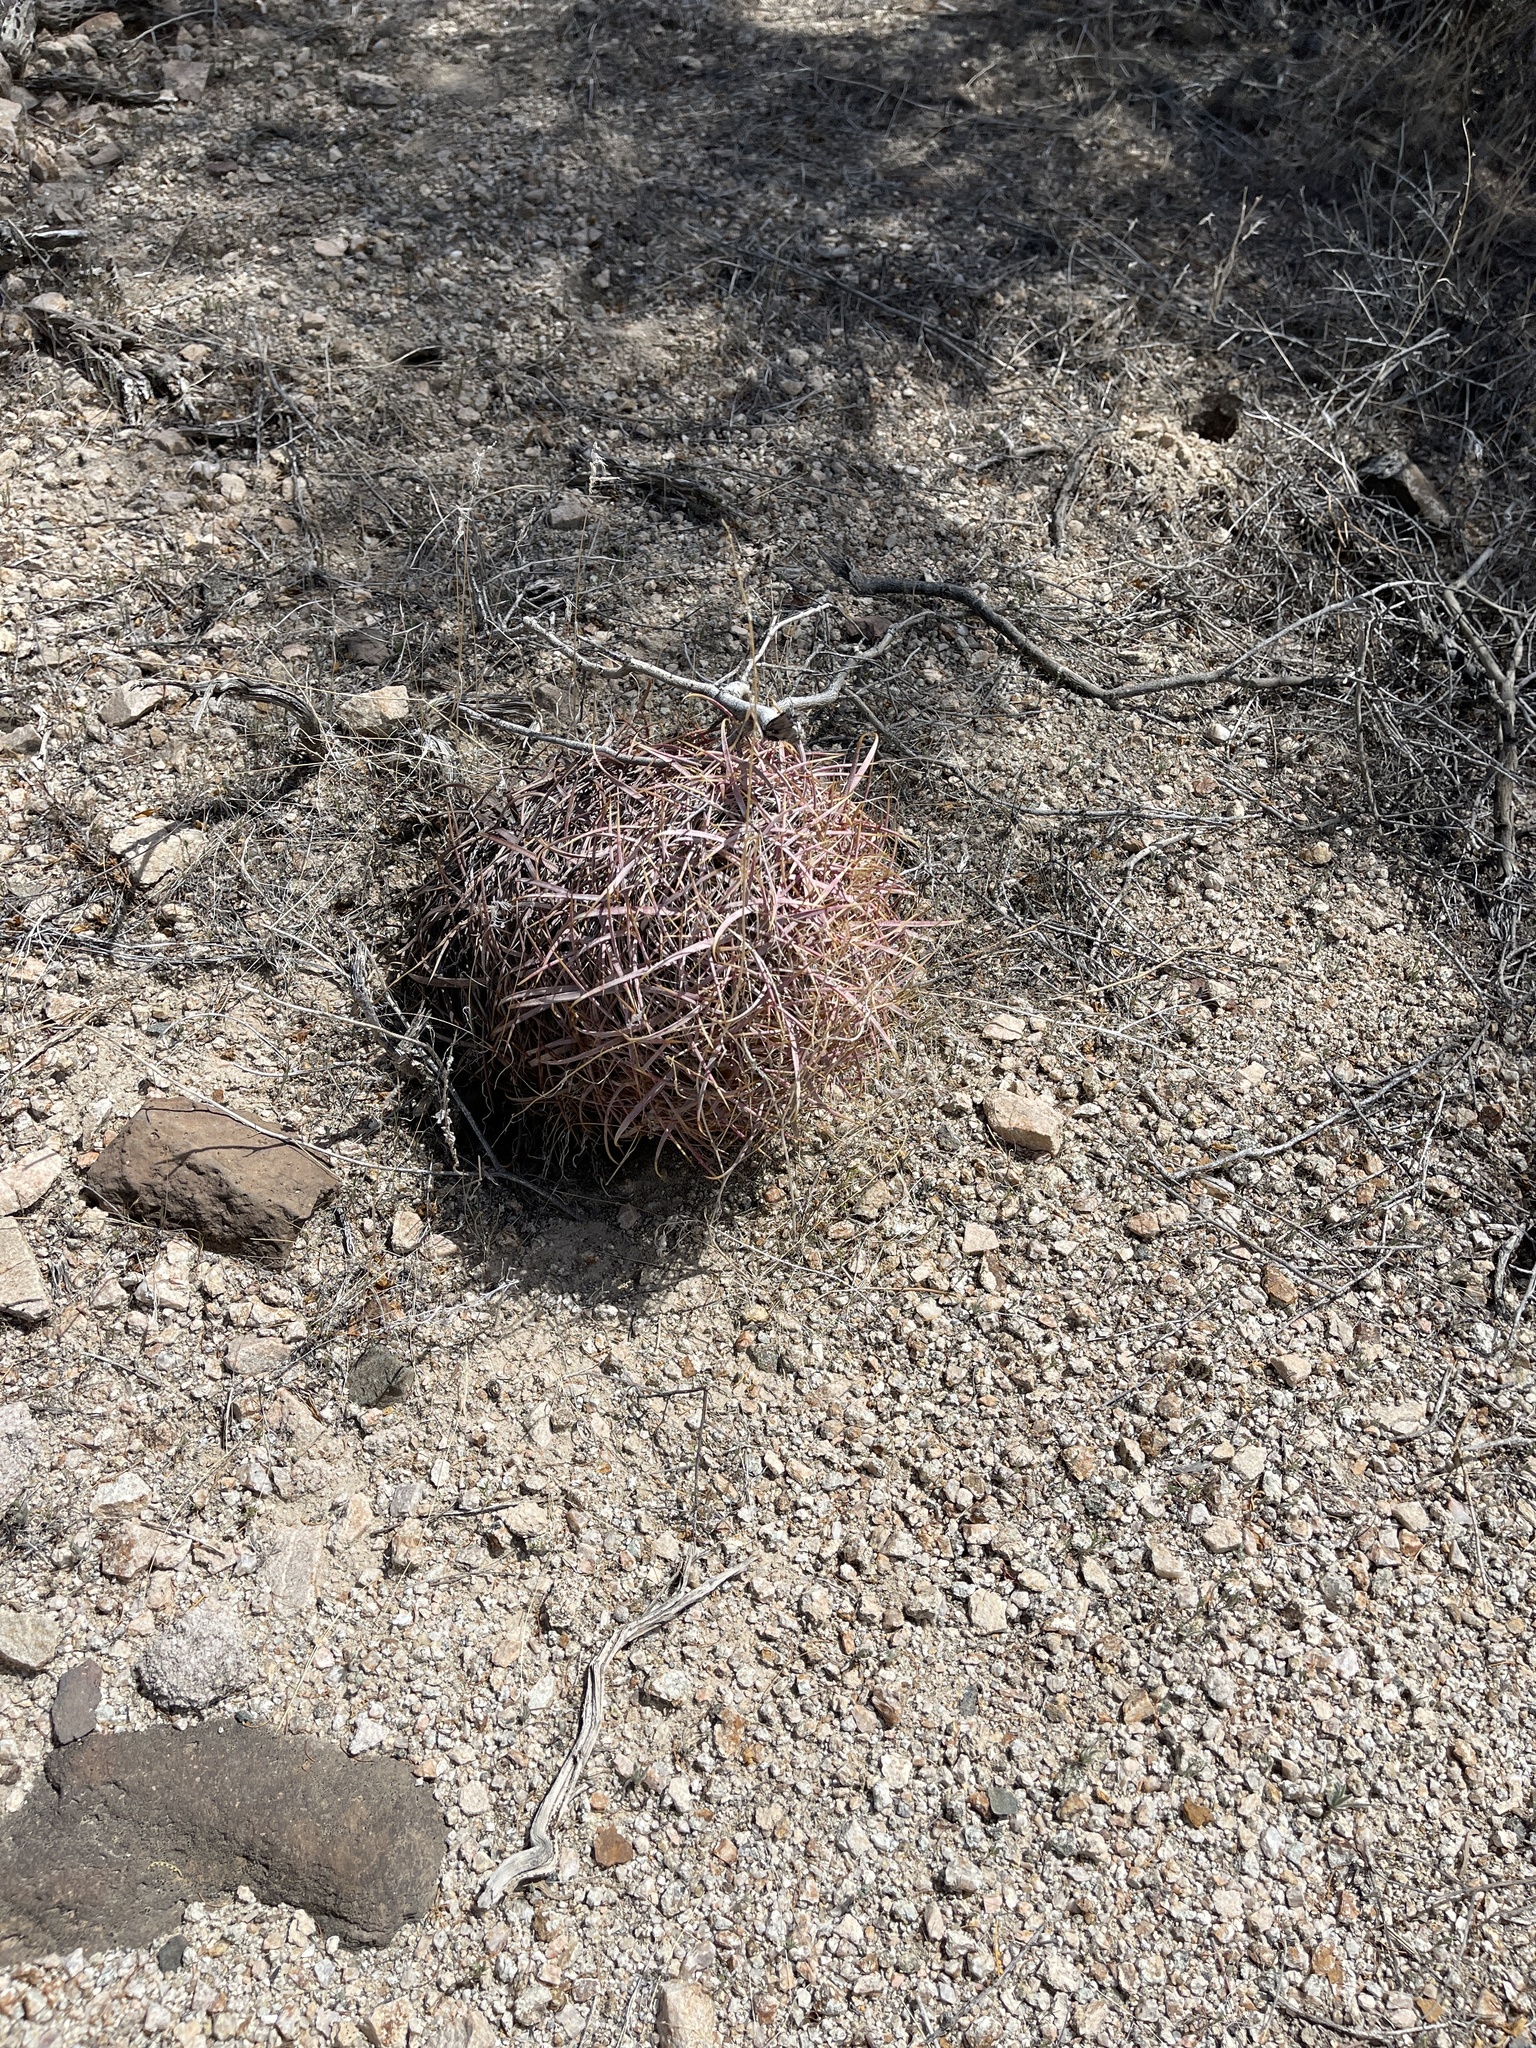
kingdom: Plantae
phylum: Tracheophyta
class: Magnoliopsida
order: Caryophyllales
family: Cactaceae
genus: Ferocactus
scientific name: Ferocactus cylindraceus
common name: California barrel cactus
